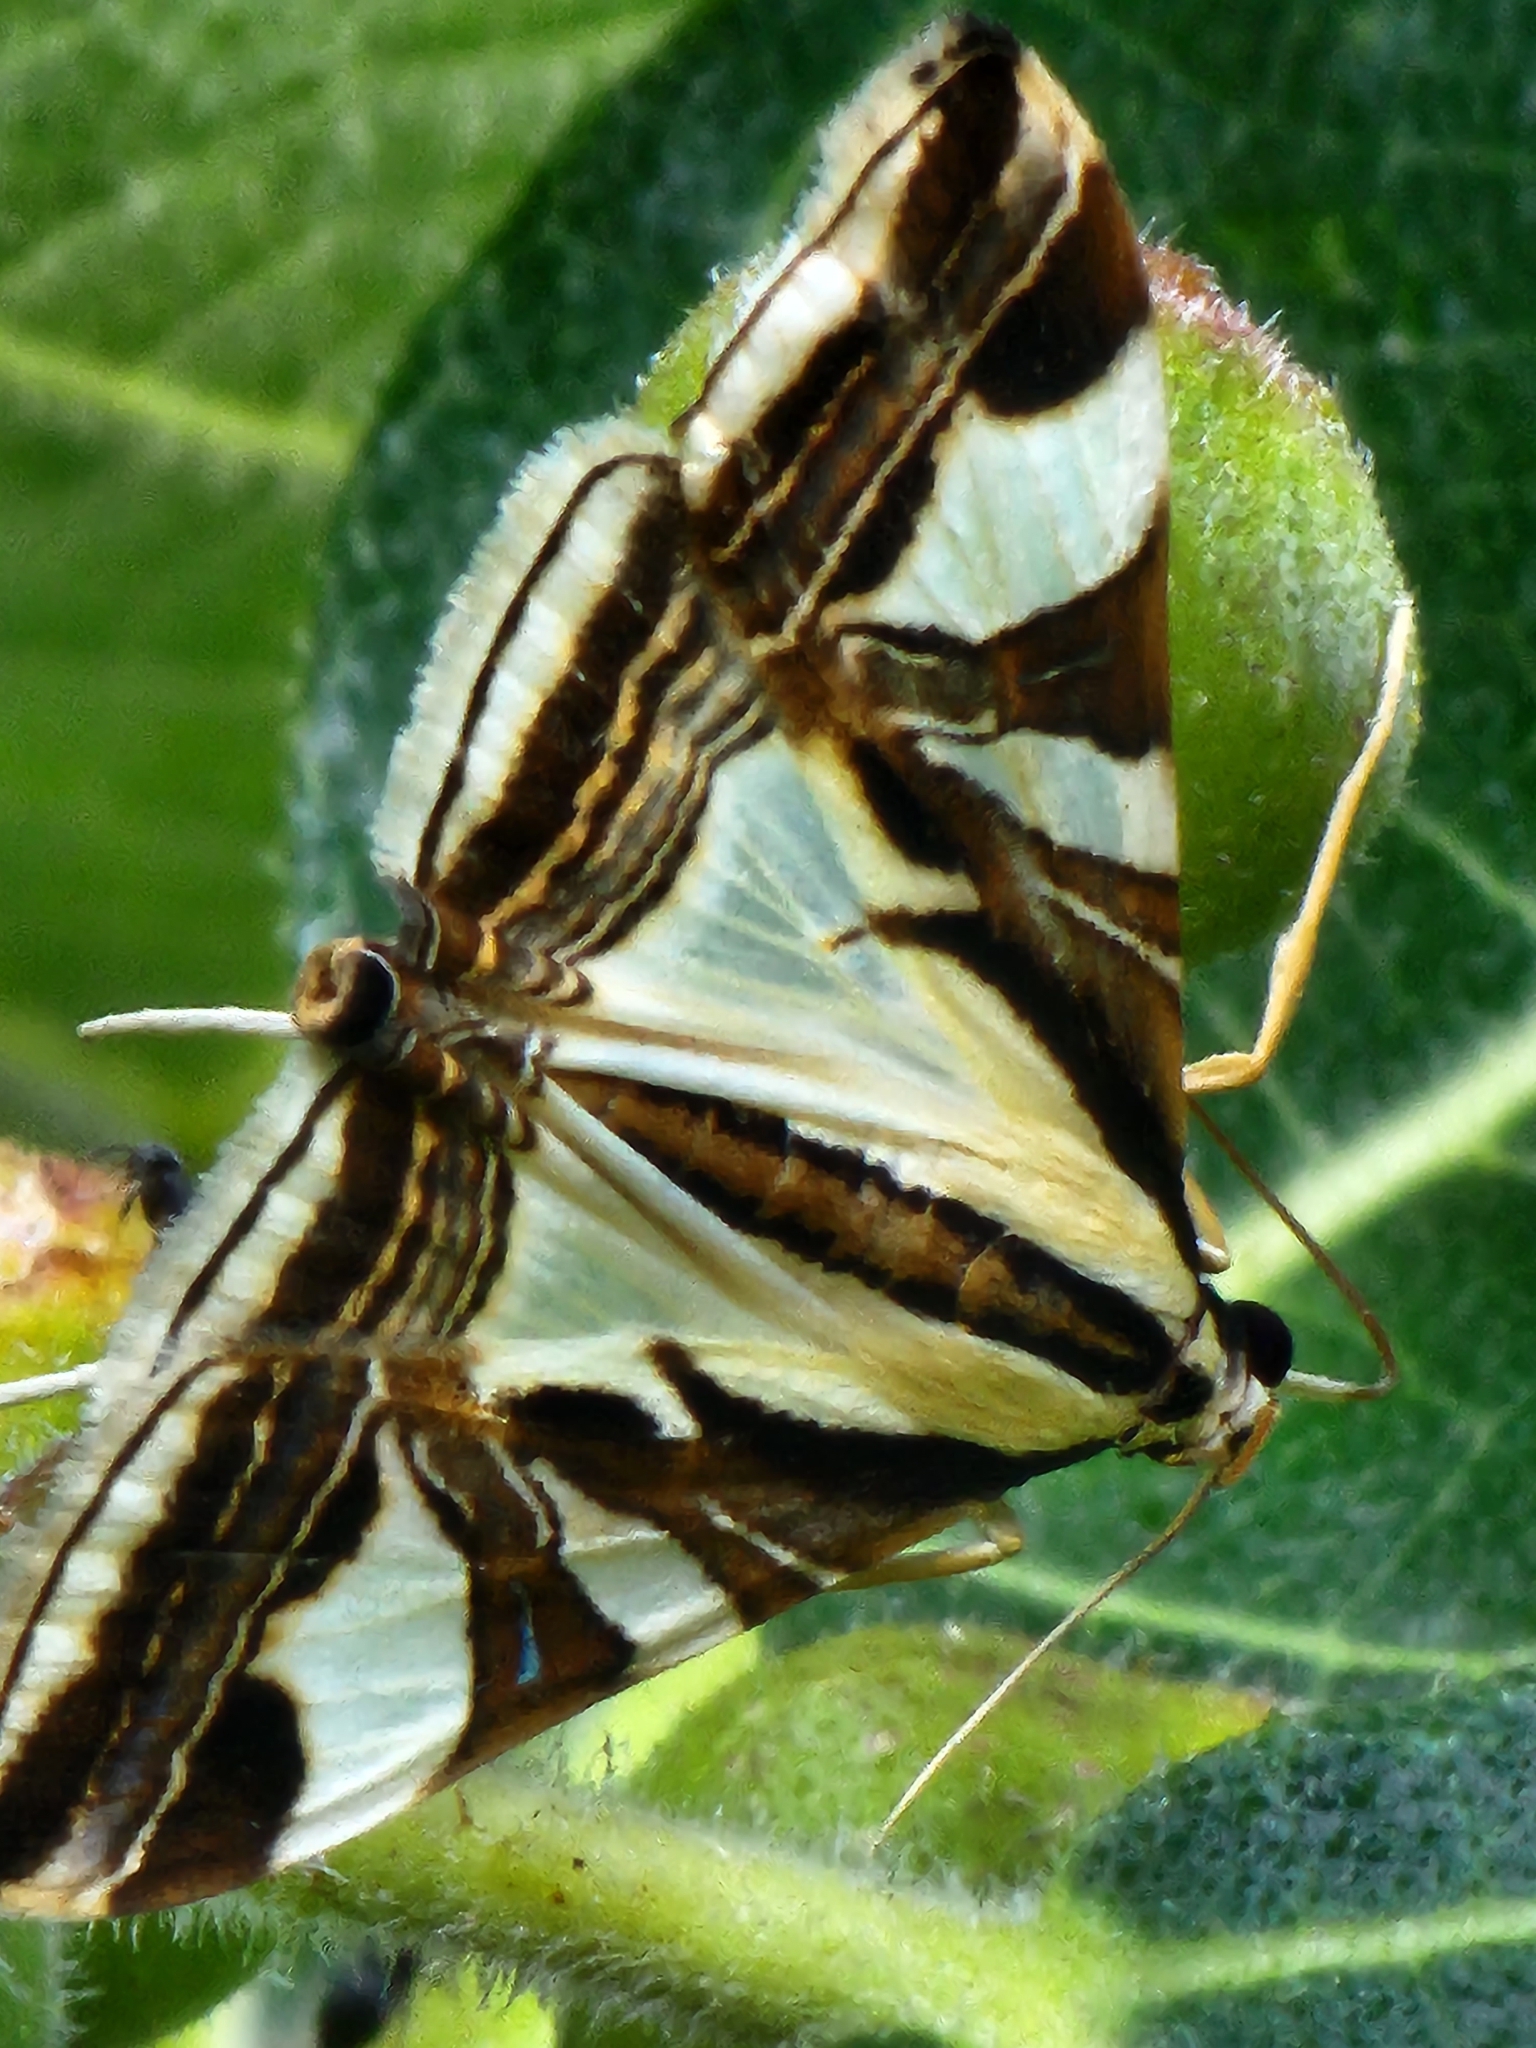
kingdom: Animalia
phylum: Arthropoda
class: Insecta
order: Lepidoptera
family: Crambidae
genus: Agrioglypta
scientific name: Agrioglypta excelsalis
